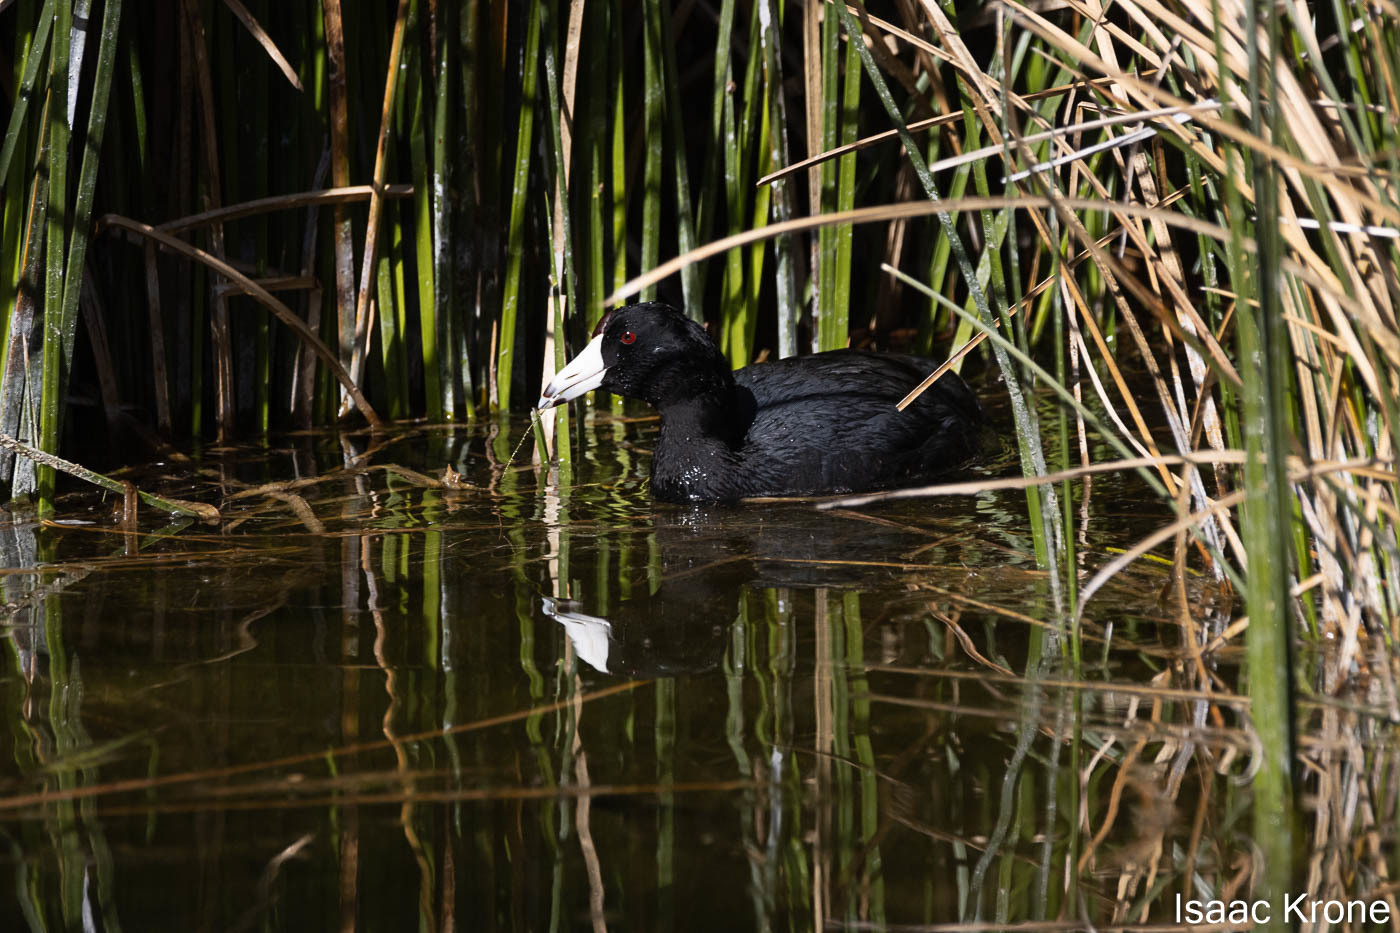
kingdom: Animalia
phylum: Chordata
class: Aves
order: Gruiformes
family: Rallidae
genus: Fulica
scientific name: Fulica americana
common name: American coot
